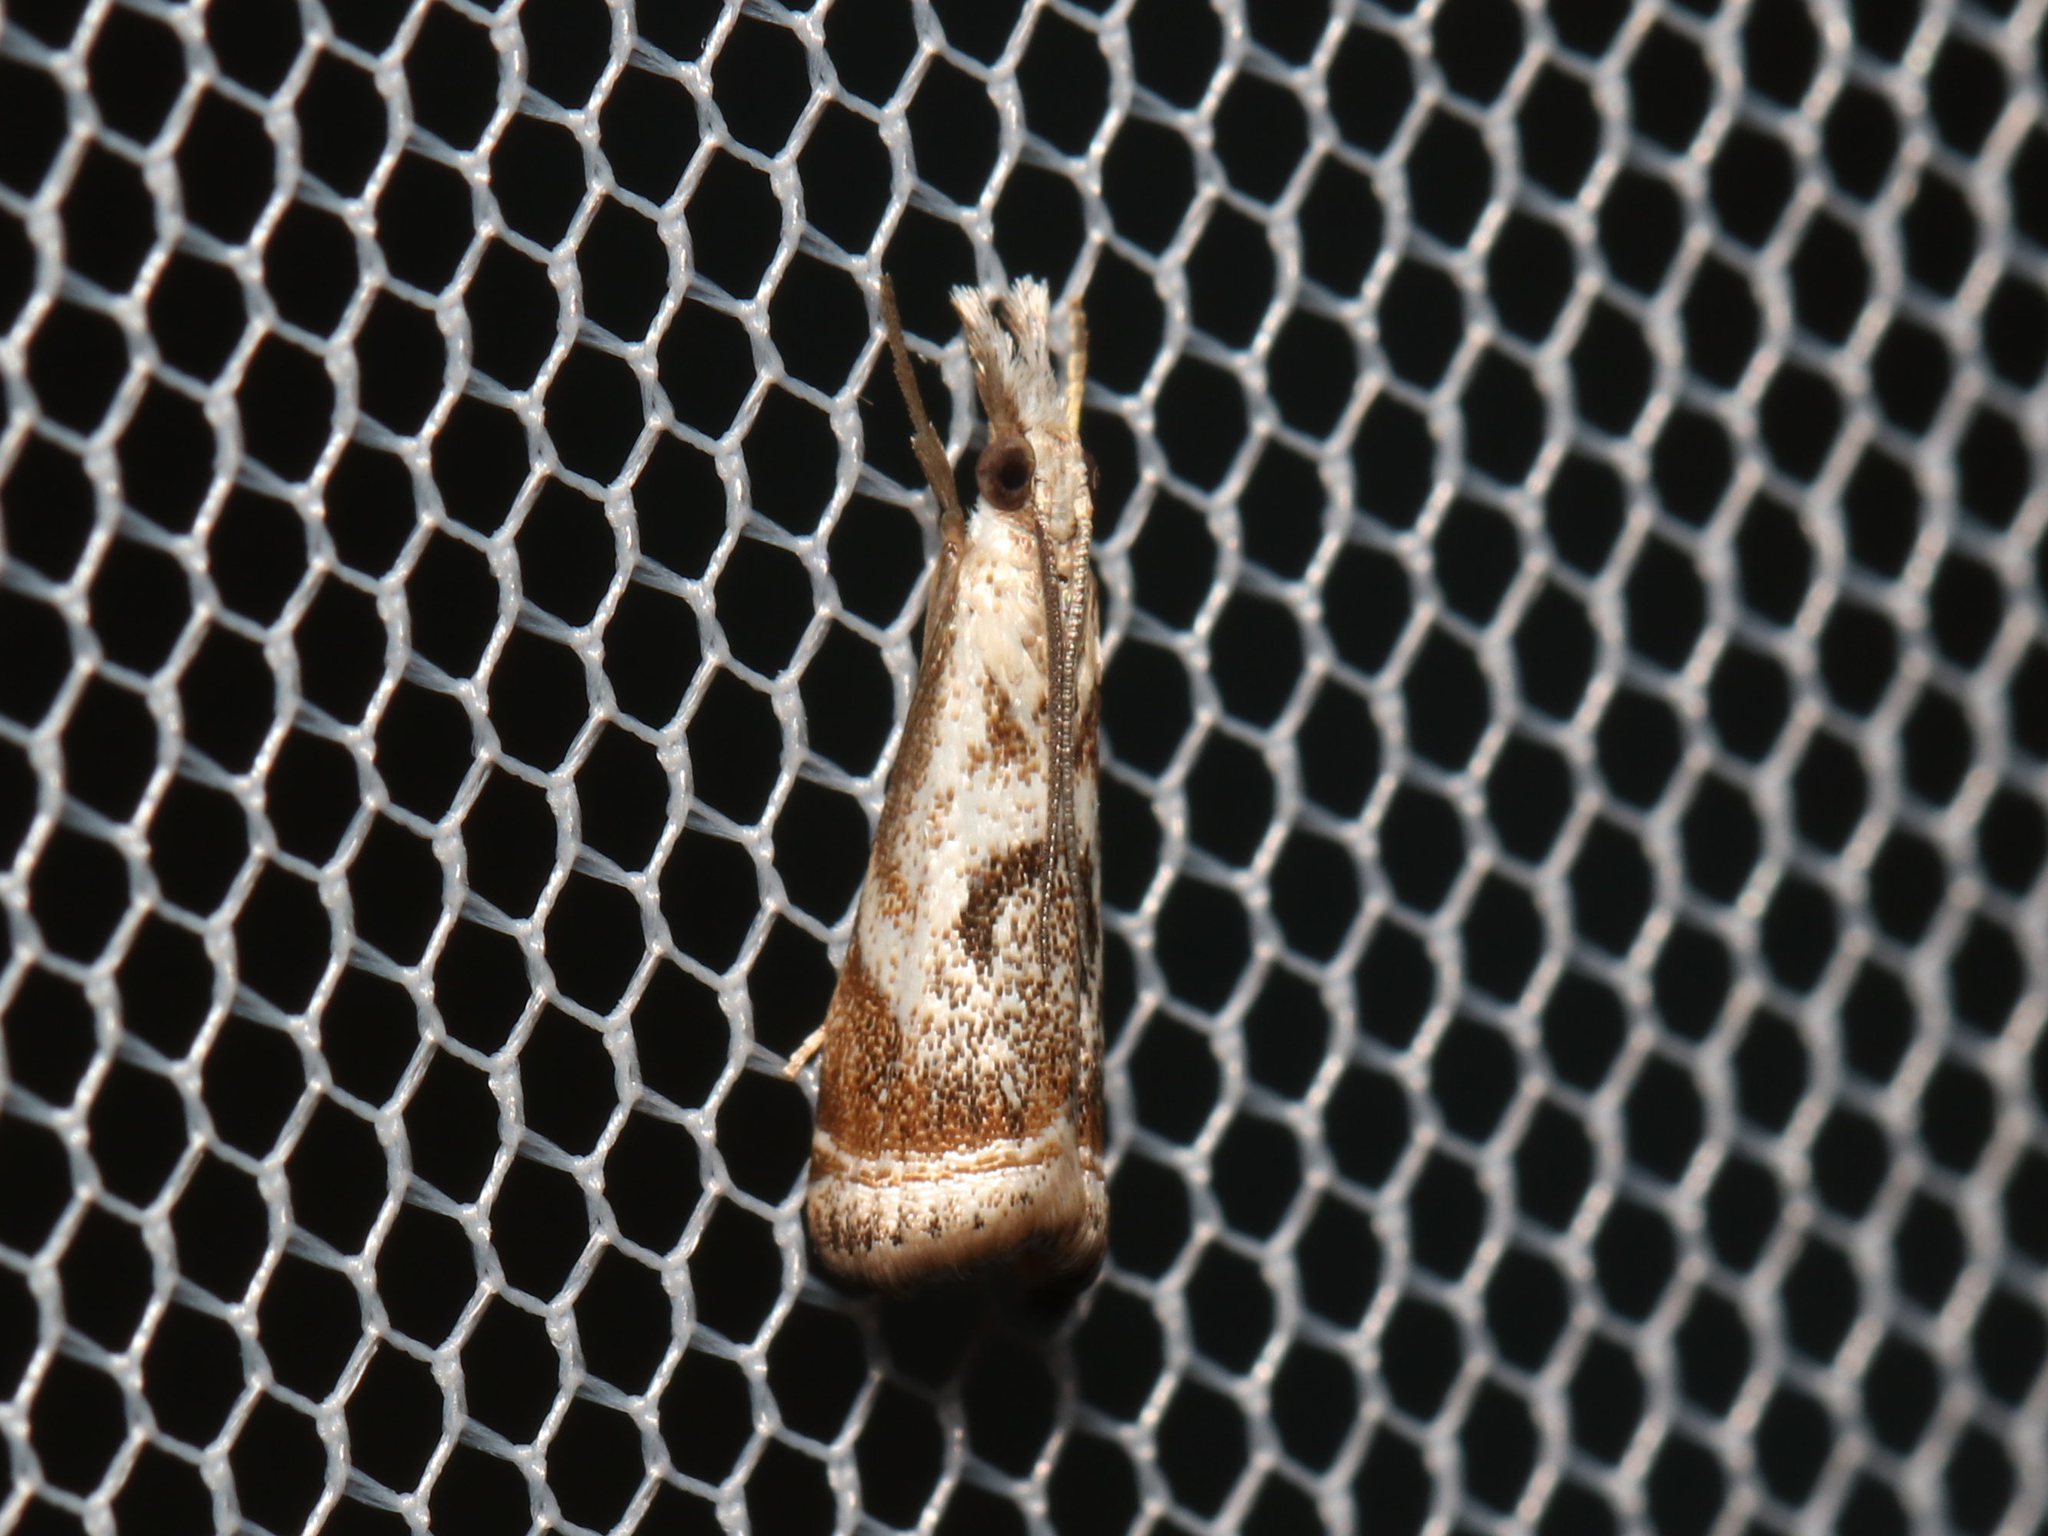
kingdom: Animalia
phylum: Arthropoda
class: Insecta
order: Lepidoptera
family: Crambidae
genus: Microcrambus
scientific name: Microcrambus elegans
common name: Elegant grass-veneer
